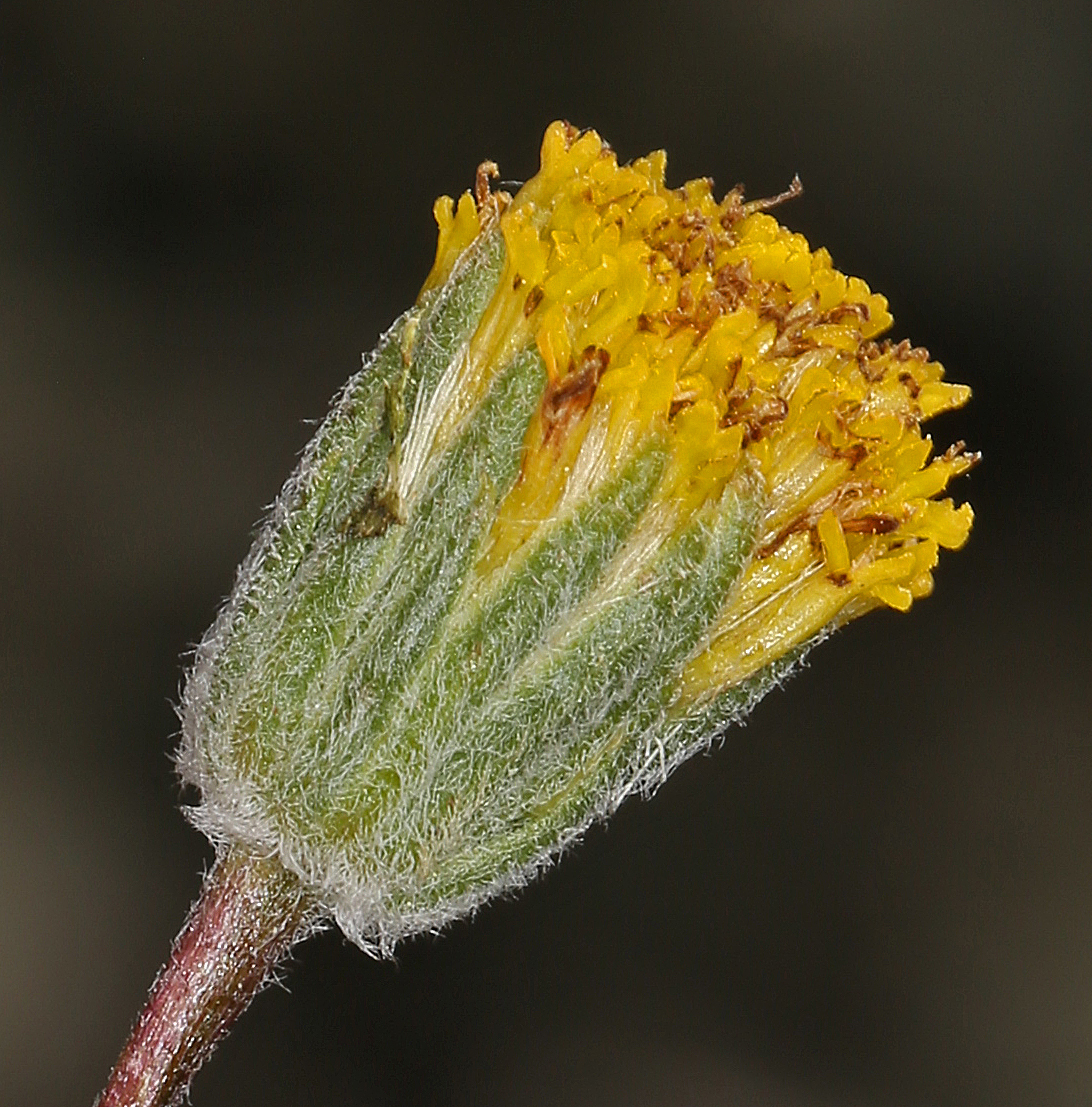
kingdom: Plantae
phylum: Tracheophyta
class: Magnoliopsida
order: Asterales
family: Asteraceae
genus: Erigeron
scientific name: Erigeron bloomeri
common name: Bloomer's fleabane
